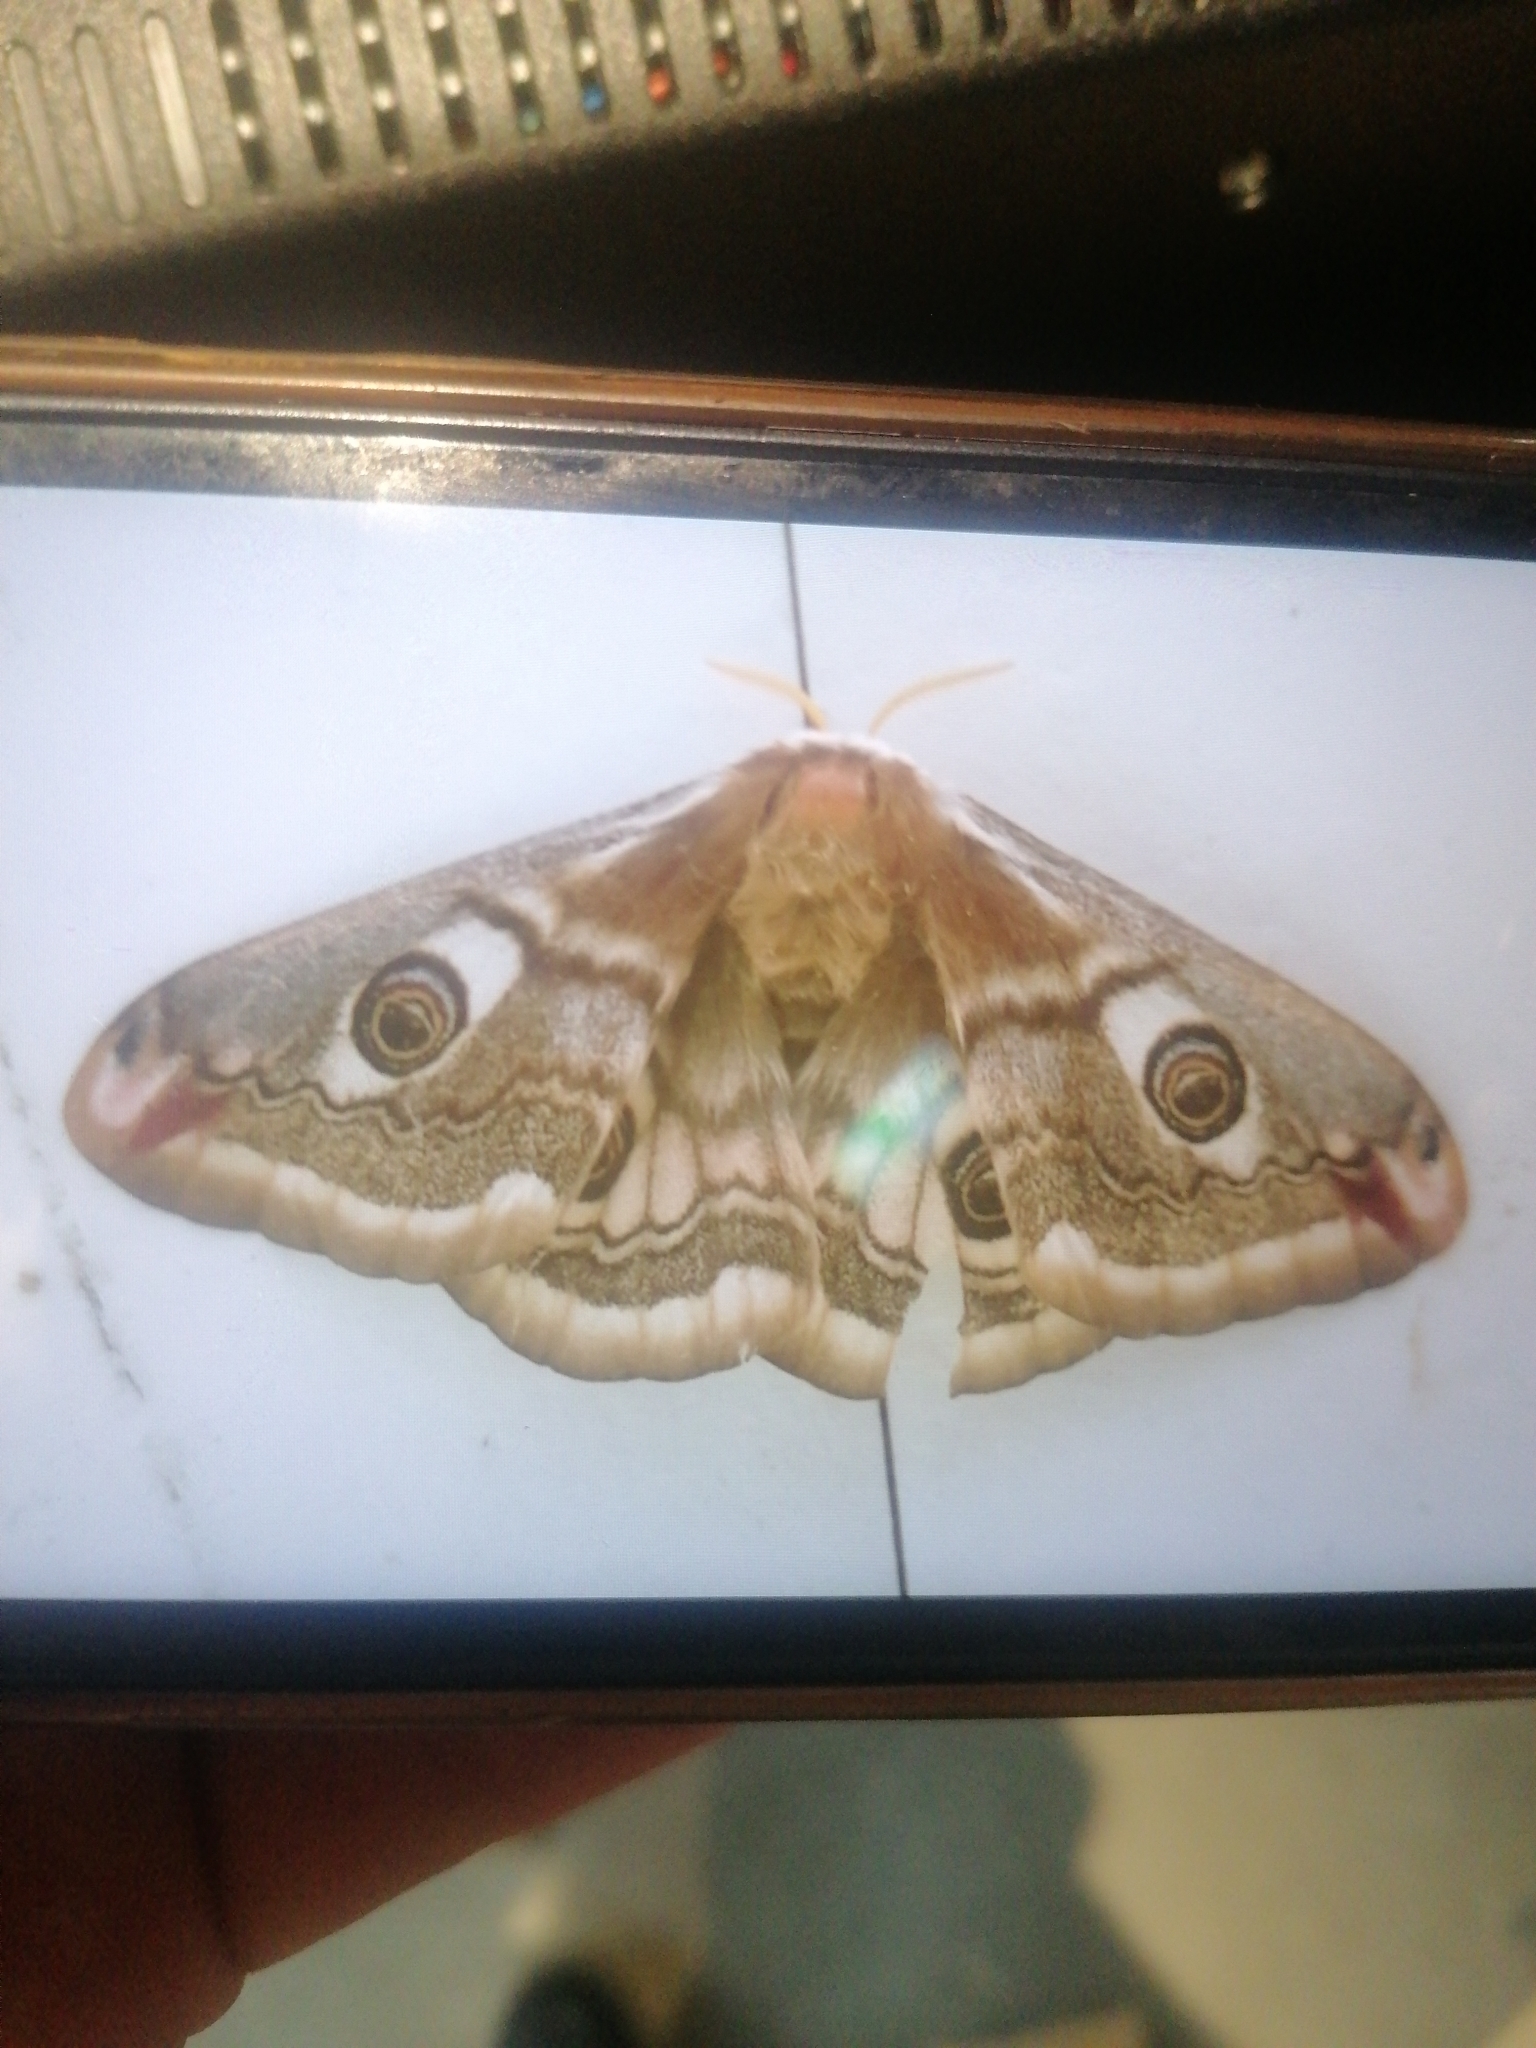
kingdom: Animalia
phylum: Arthropoda
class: Insecta
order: Lepidoptera
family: Saturniidae
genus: Saturnia
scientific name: Saturnia pavoniella
